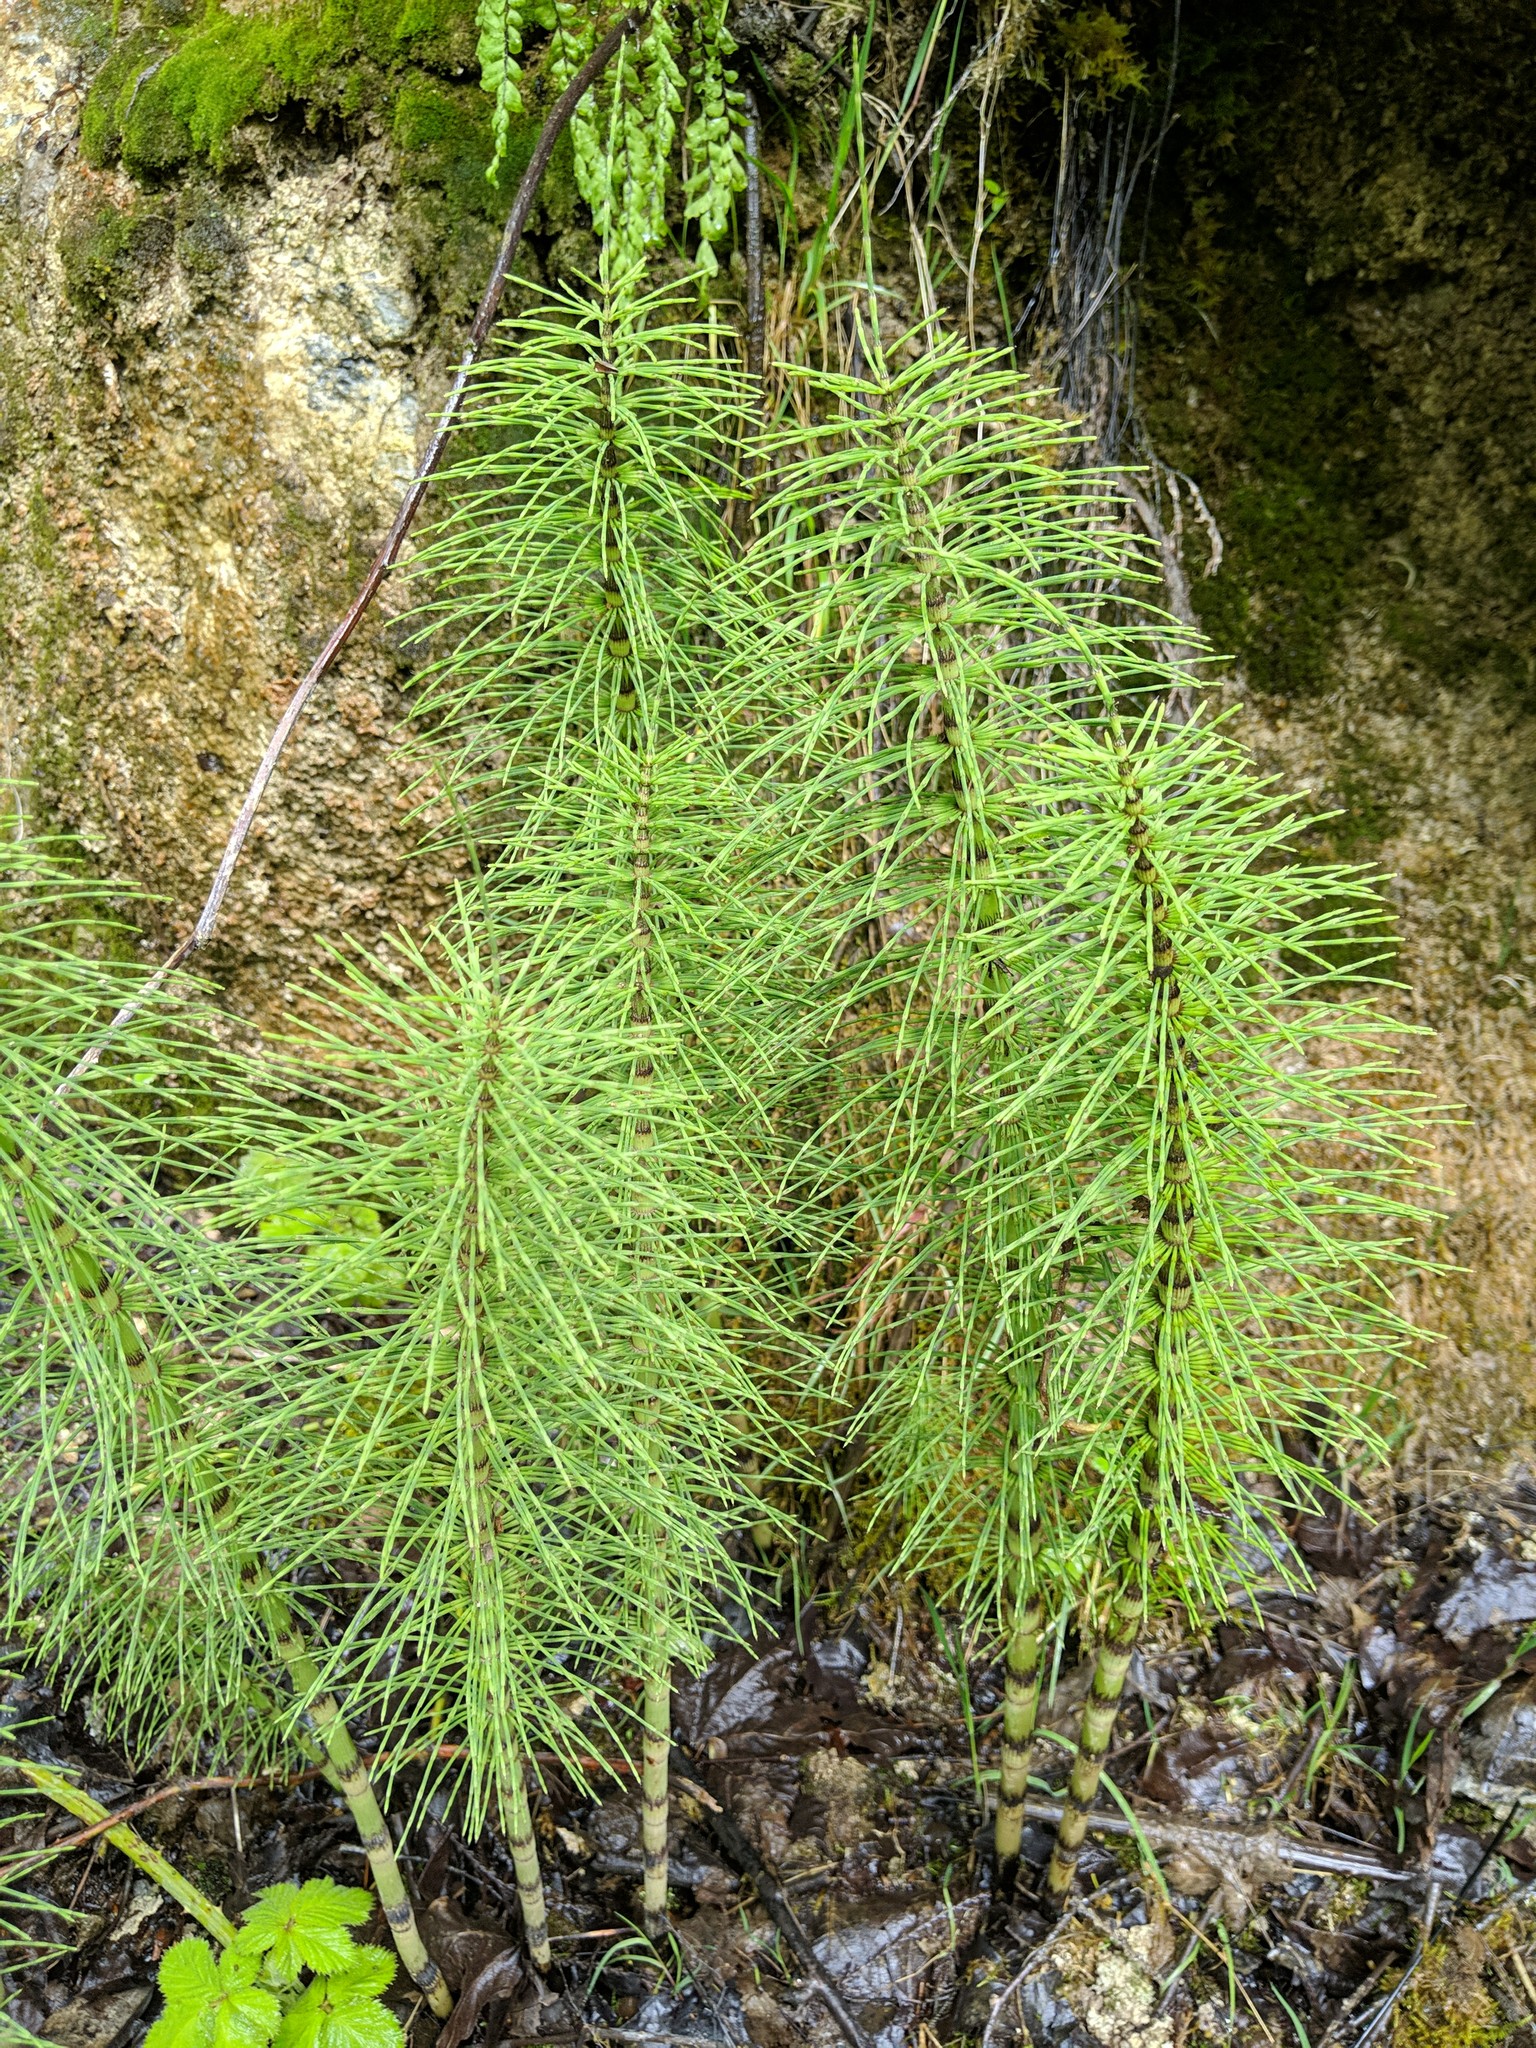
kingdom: Plantae
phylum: Tracheophyta
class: Polypodiopsida
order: Equisetales
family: Equisetaceae
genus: Equisetum
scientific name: Equisetum braunii
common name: Braun's horsetail
